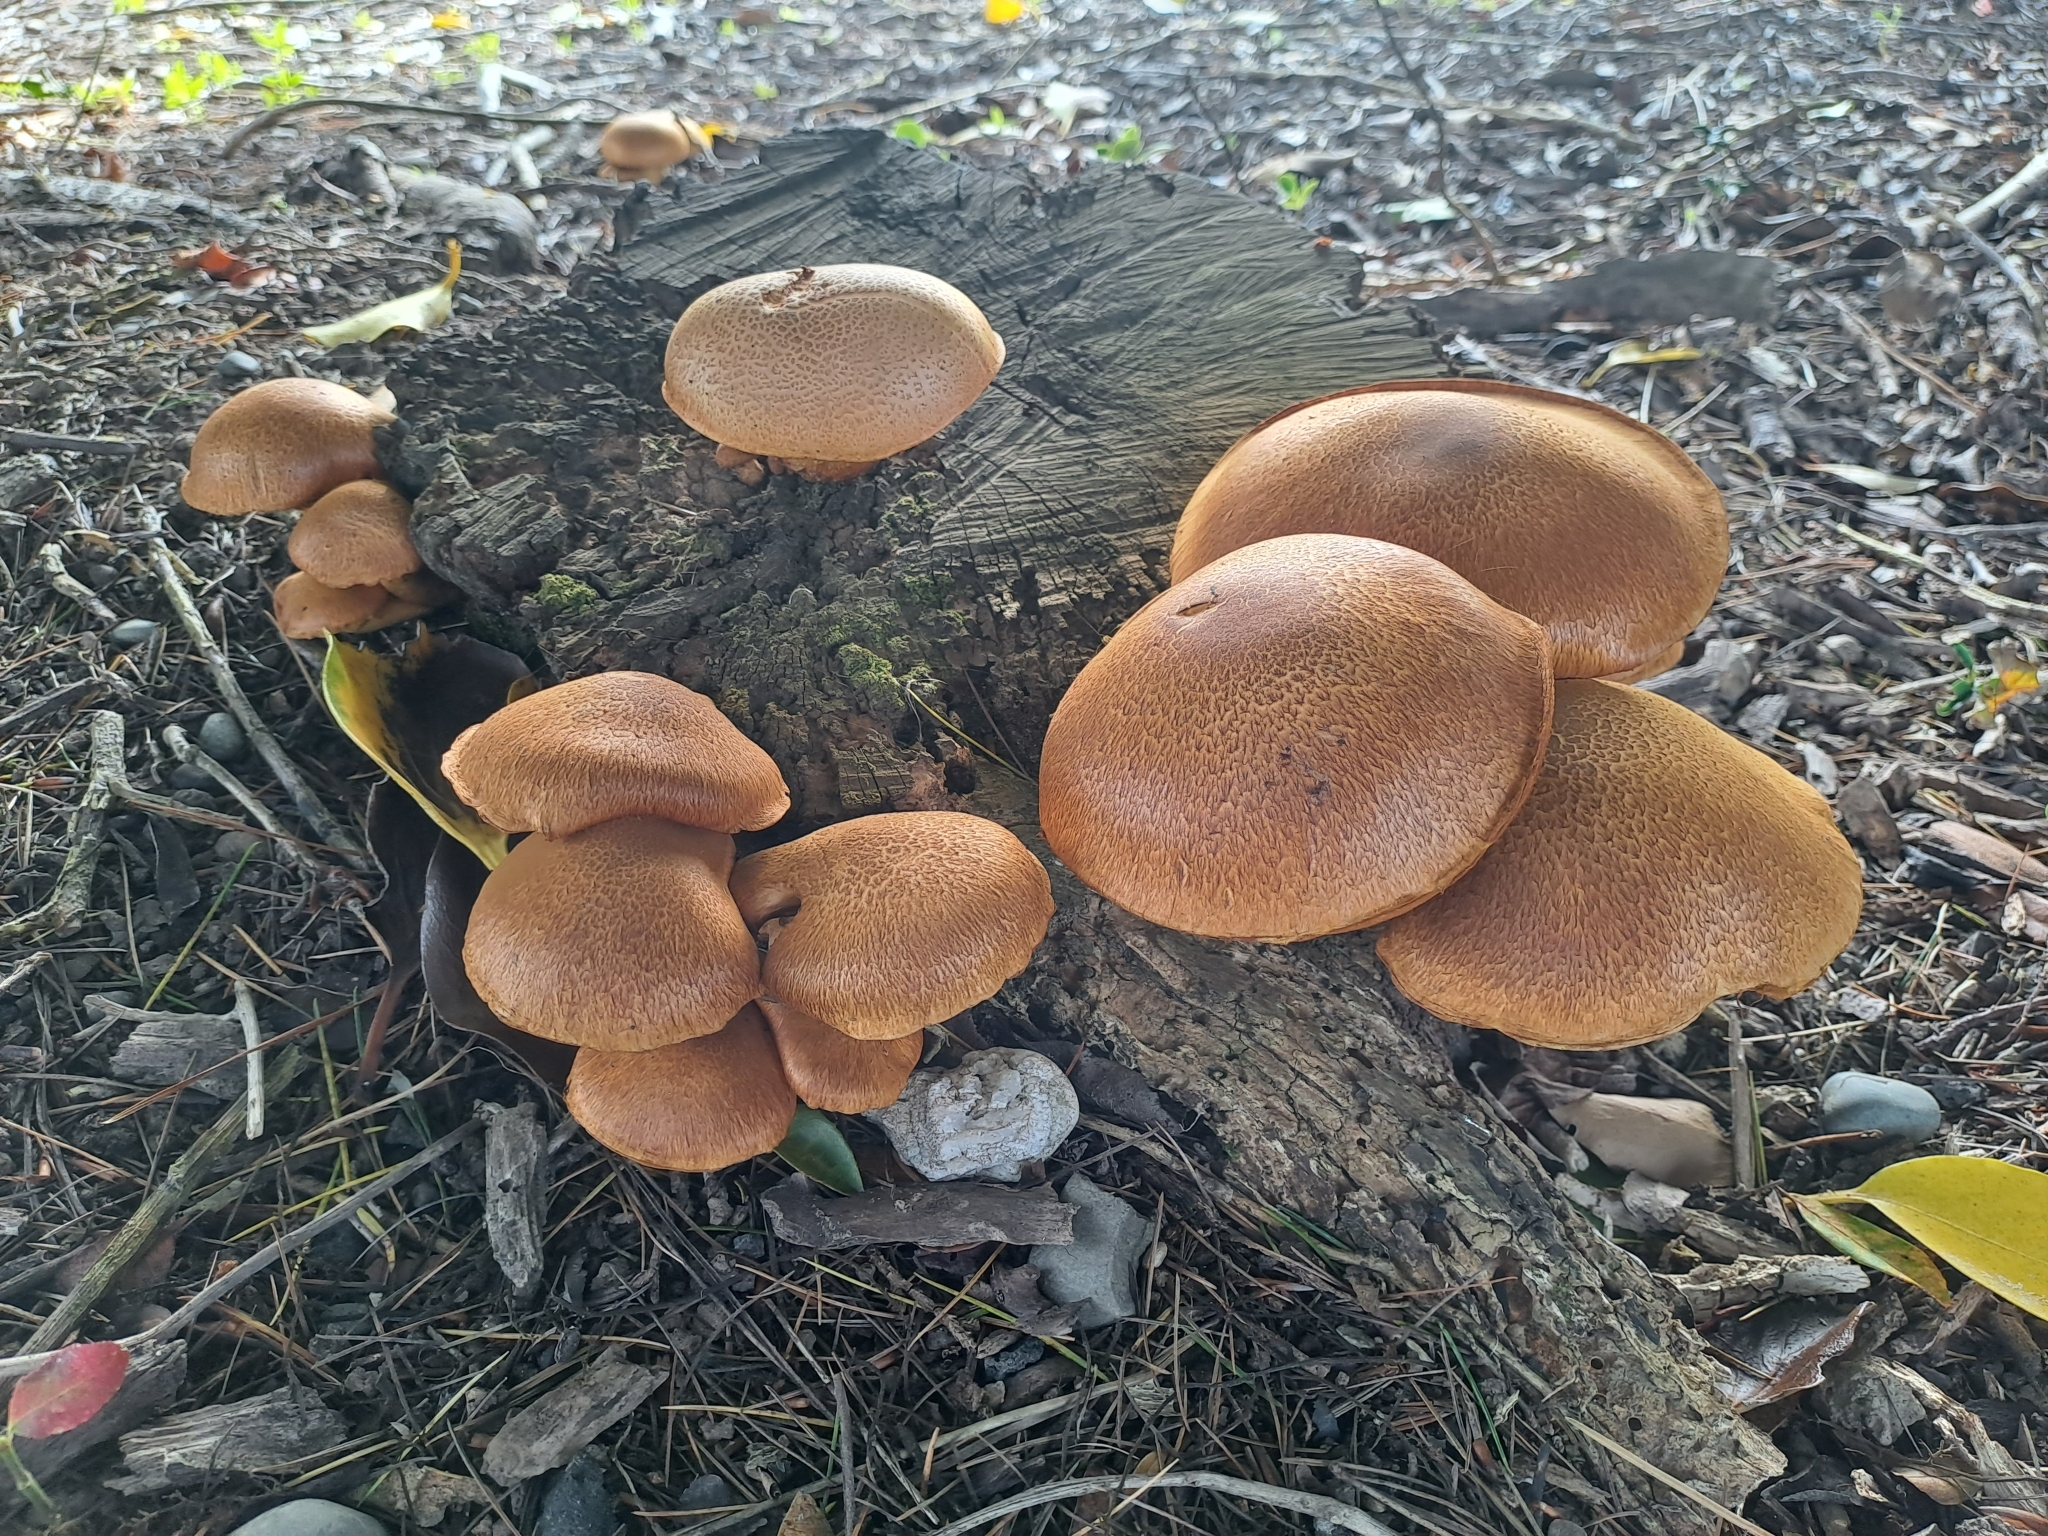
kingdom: Fungi
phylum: Basidiomycota
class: Agaricomycetes
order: Agaricales
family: Hymenogastraceae
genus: Gymnopilus
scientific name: Gymnopilus junonius
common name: Spectacular rustgill
